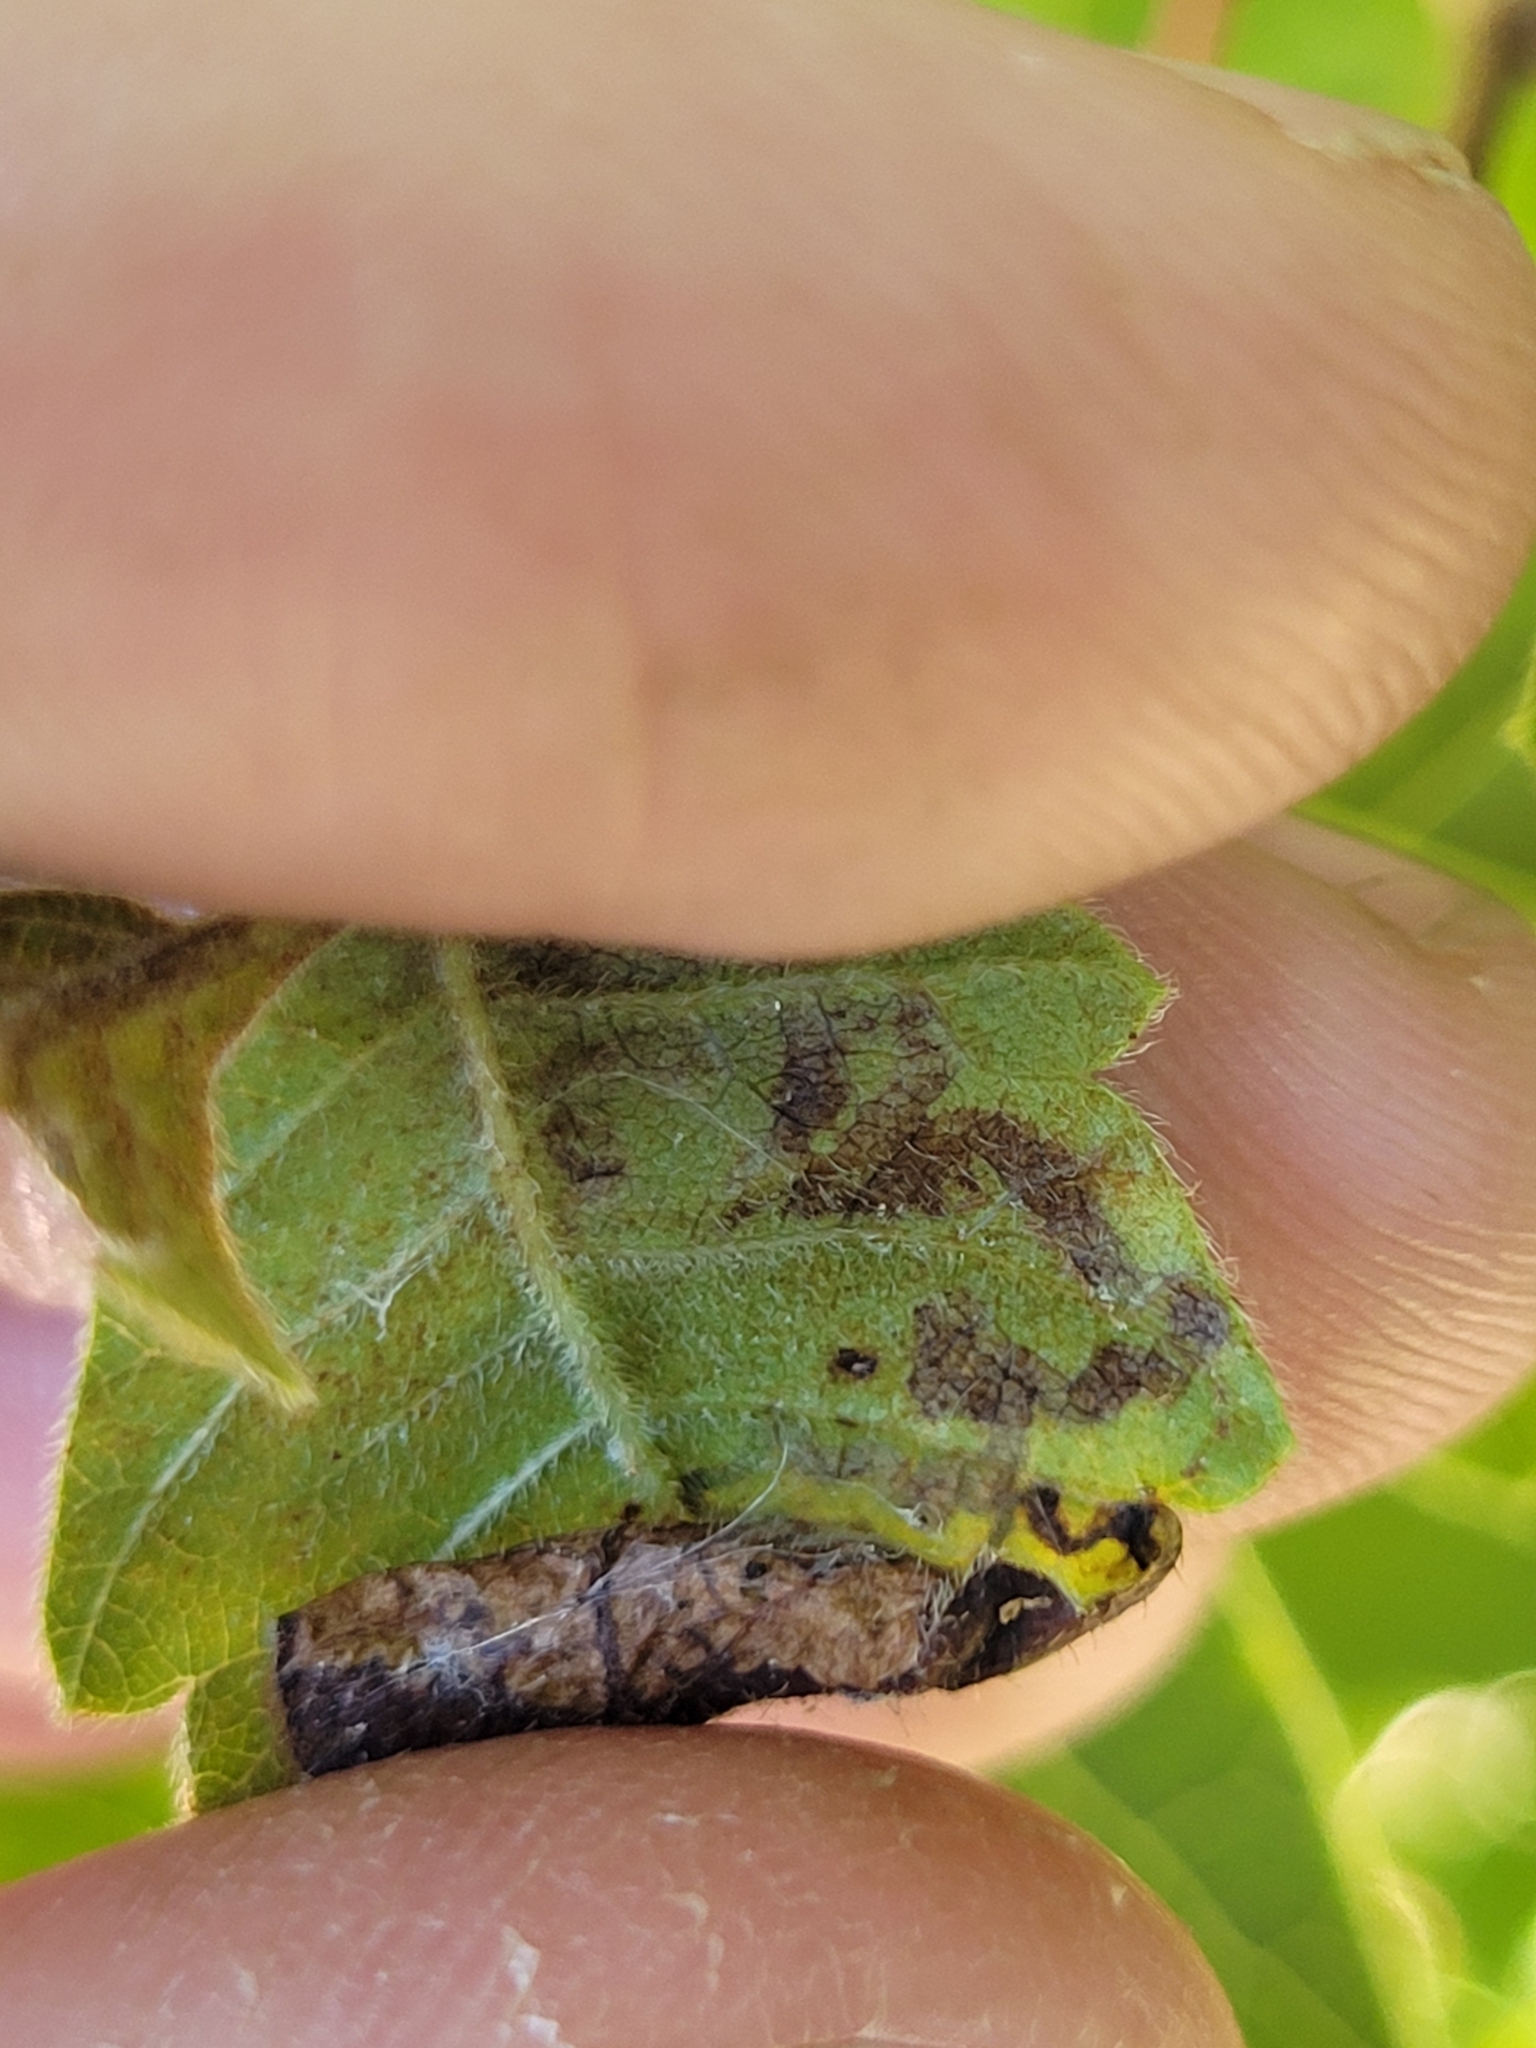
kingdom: Animalia
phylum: Arthropoda
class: Insecta
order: Lepidoptera
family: Nepticulidae
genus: Stigmella
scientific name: Stigmella intermedia
